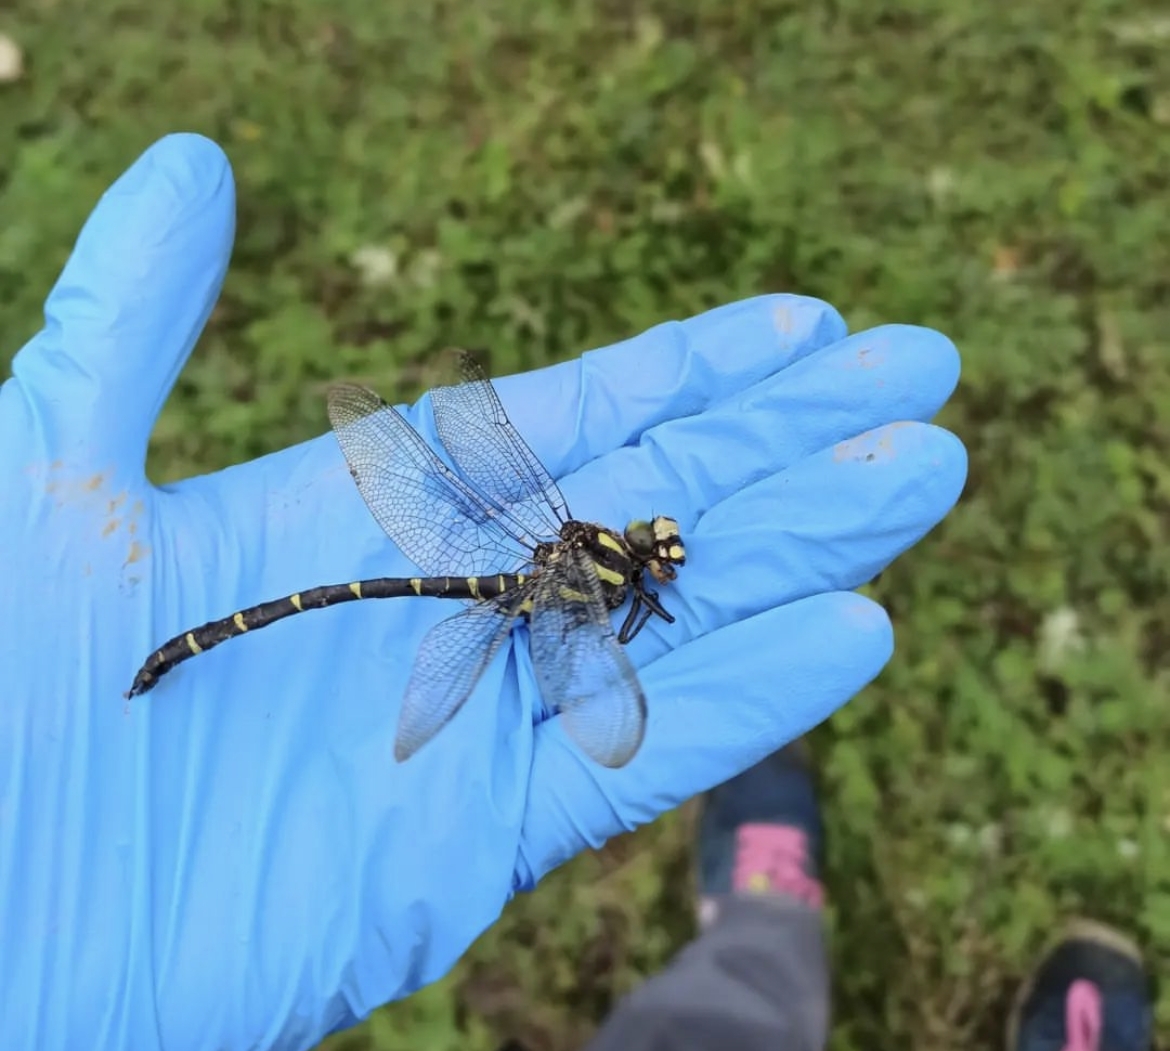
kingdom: Animalia
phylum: Arthropoda
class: Insecta
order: Odonata
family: Cordulegastridae
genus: Cordulegaster
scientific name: Cordulegaster bidentata
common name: Sombre goldenring
